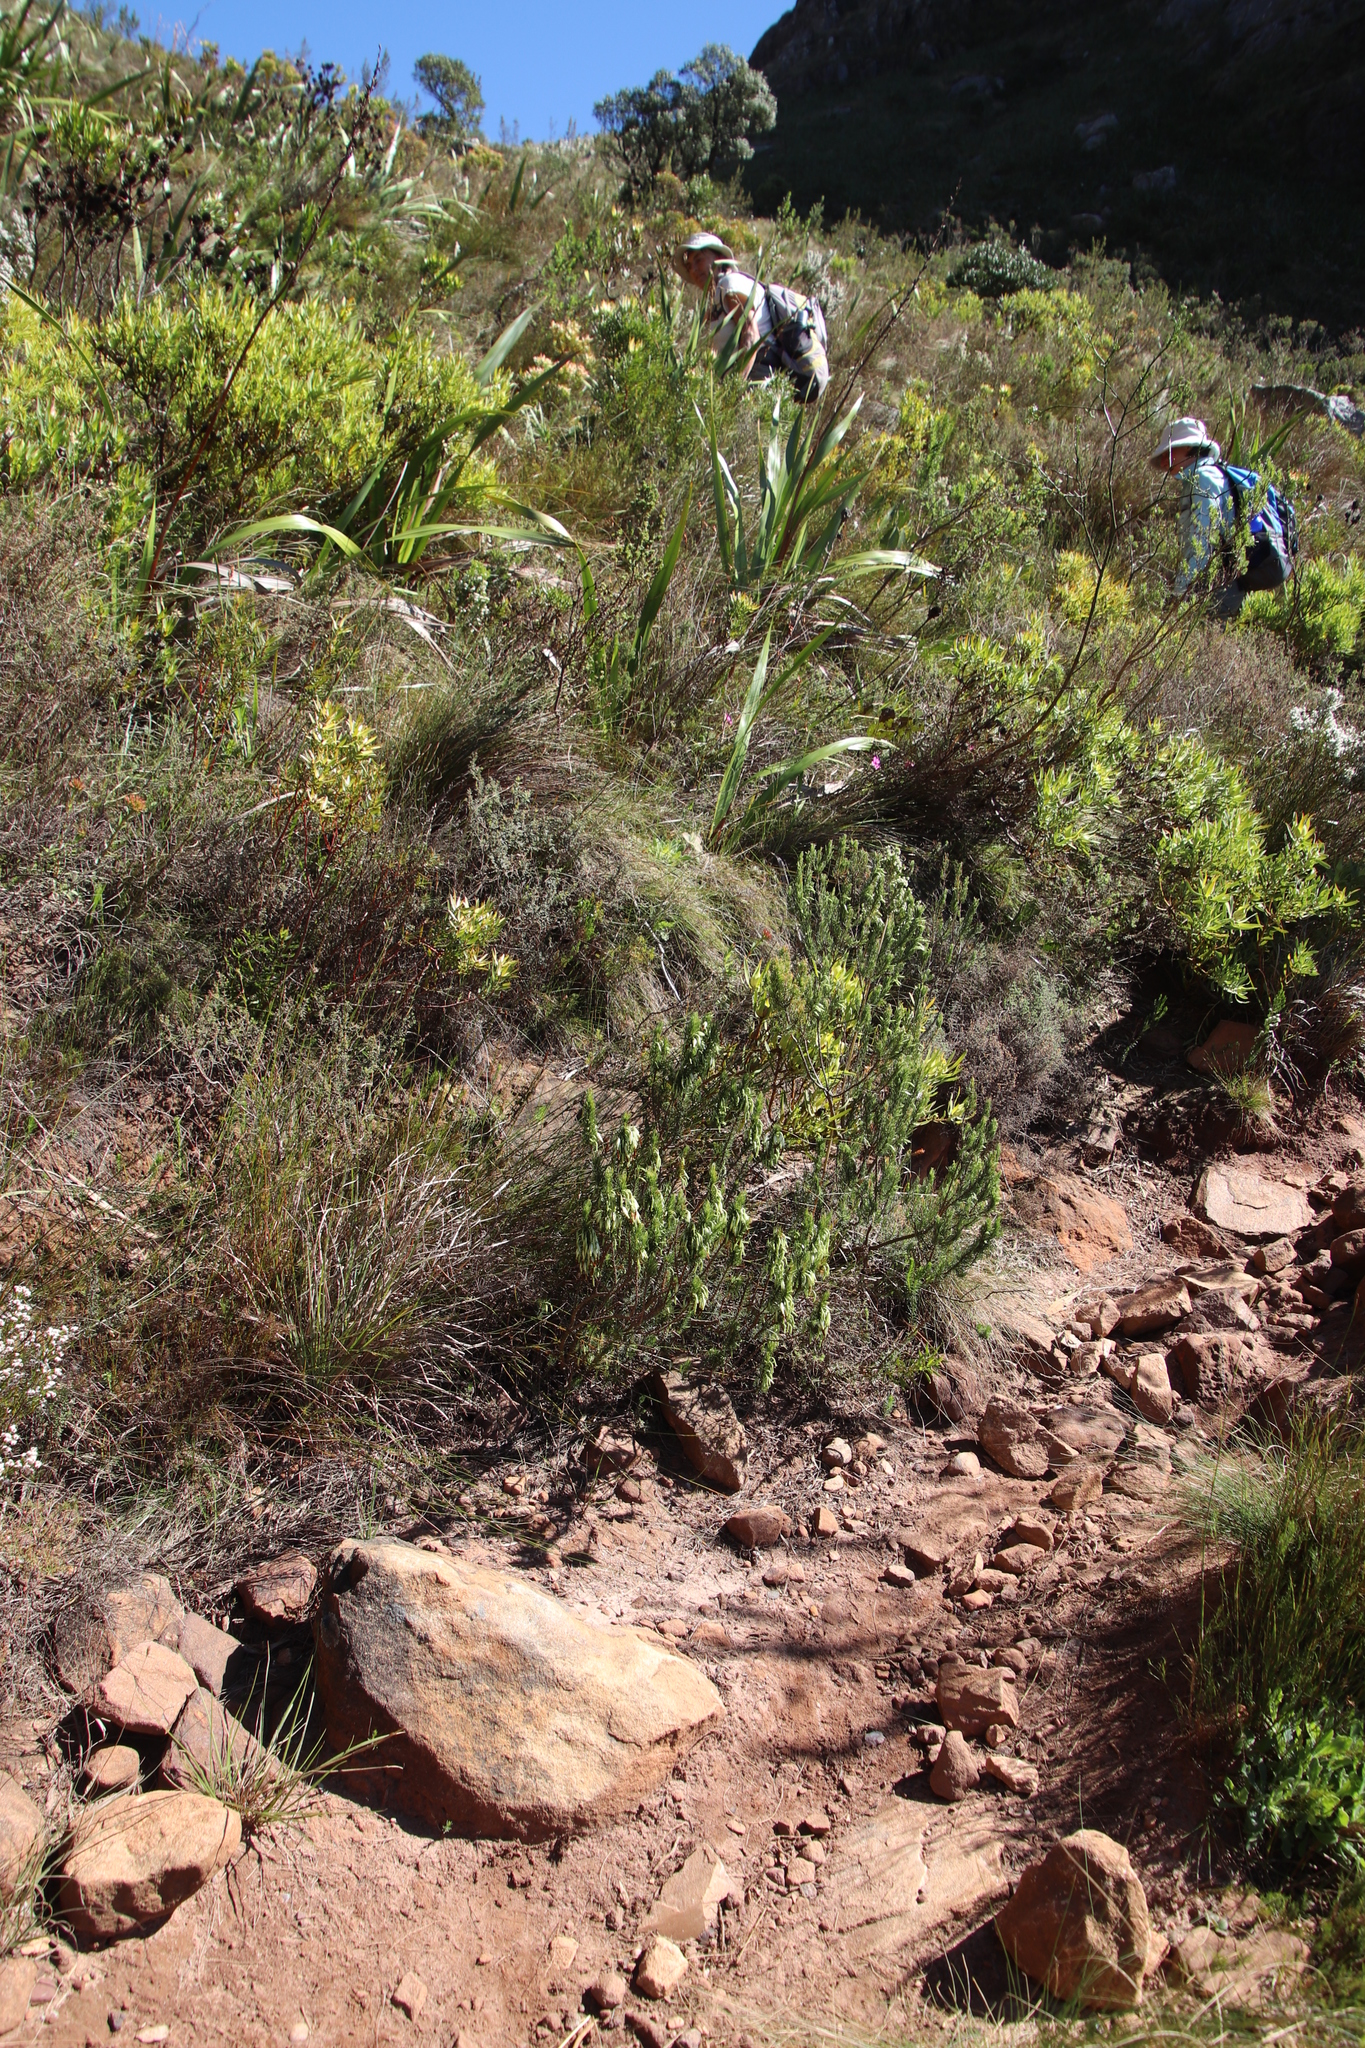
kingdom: Plantae
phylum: Tracheophyta
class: Magnoliopsida
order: Proteales
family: Proteaceae
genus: Leucadendron
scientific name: Leucadendron salignum
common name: Common sunshine conebush
